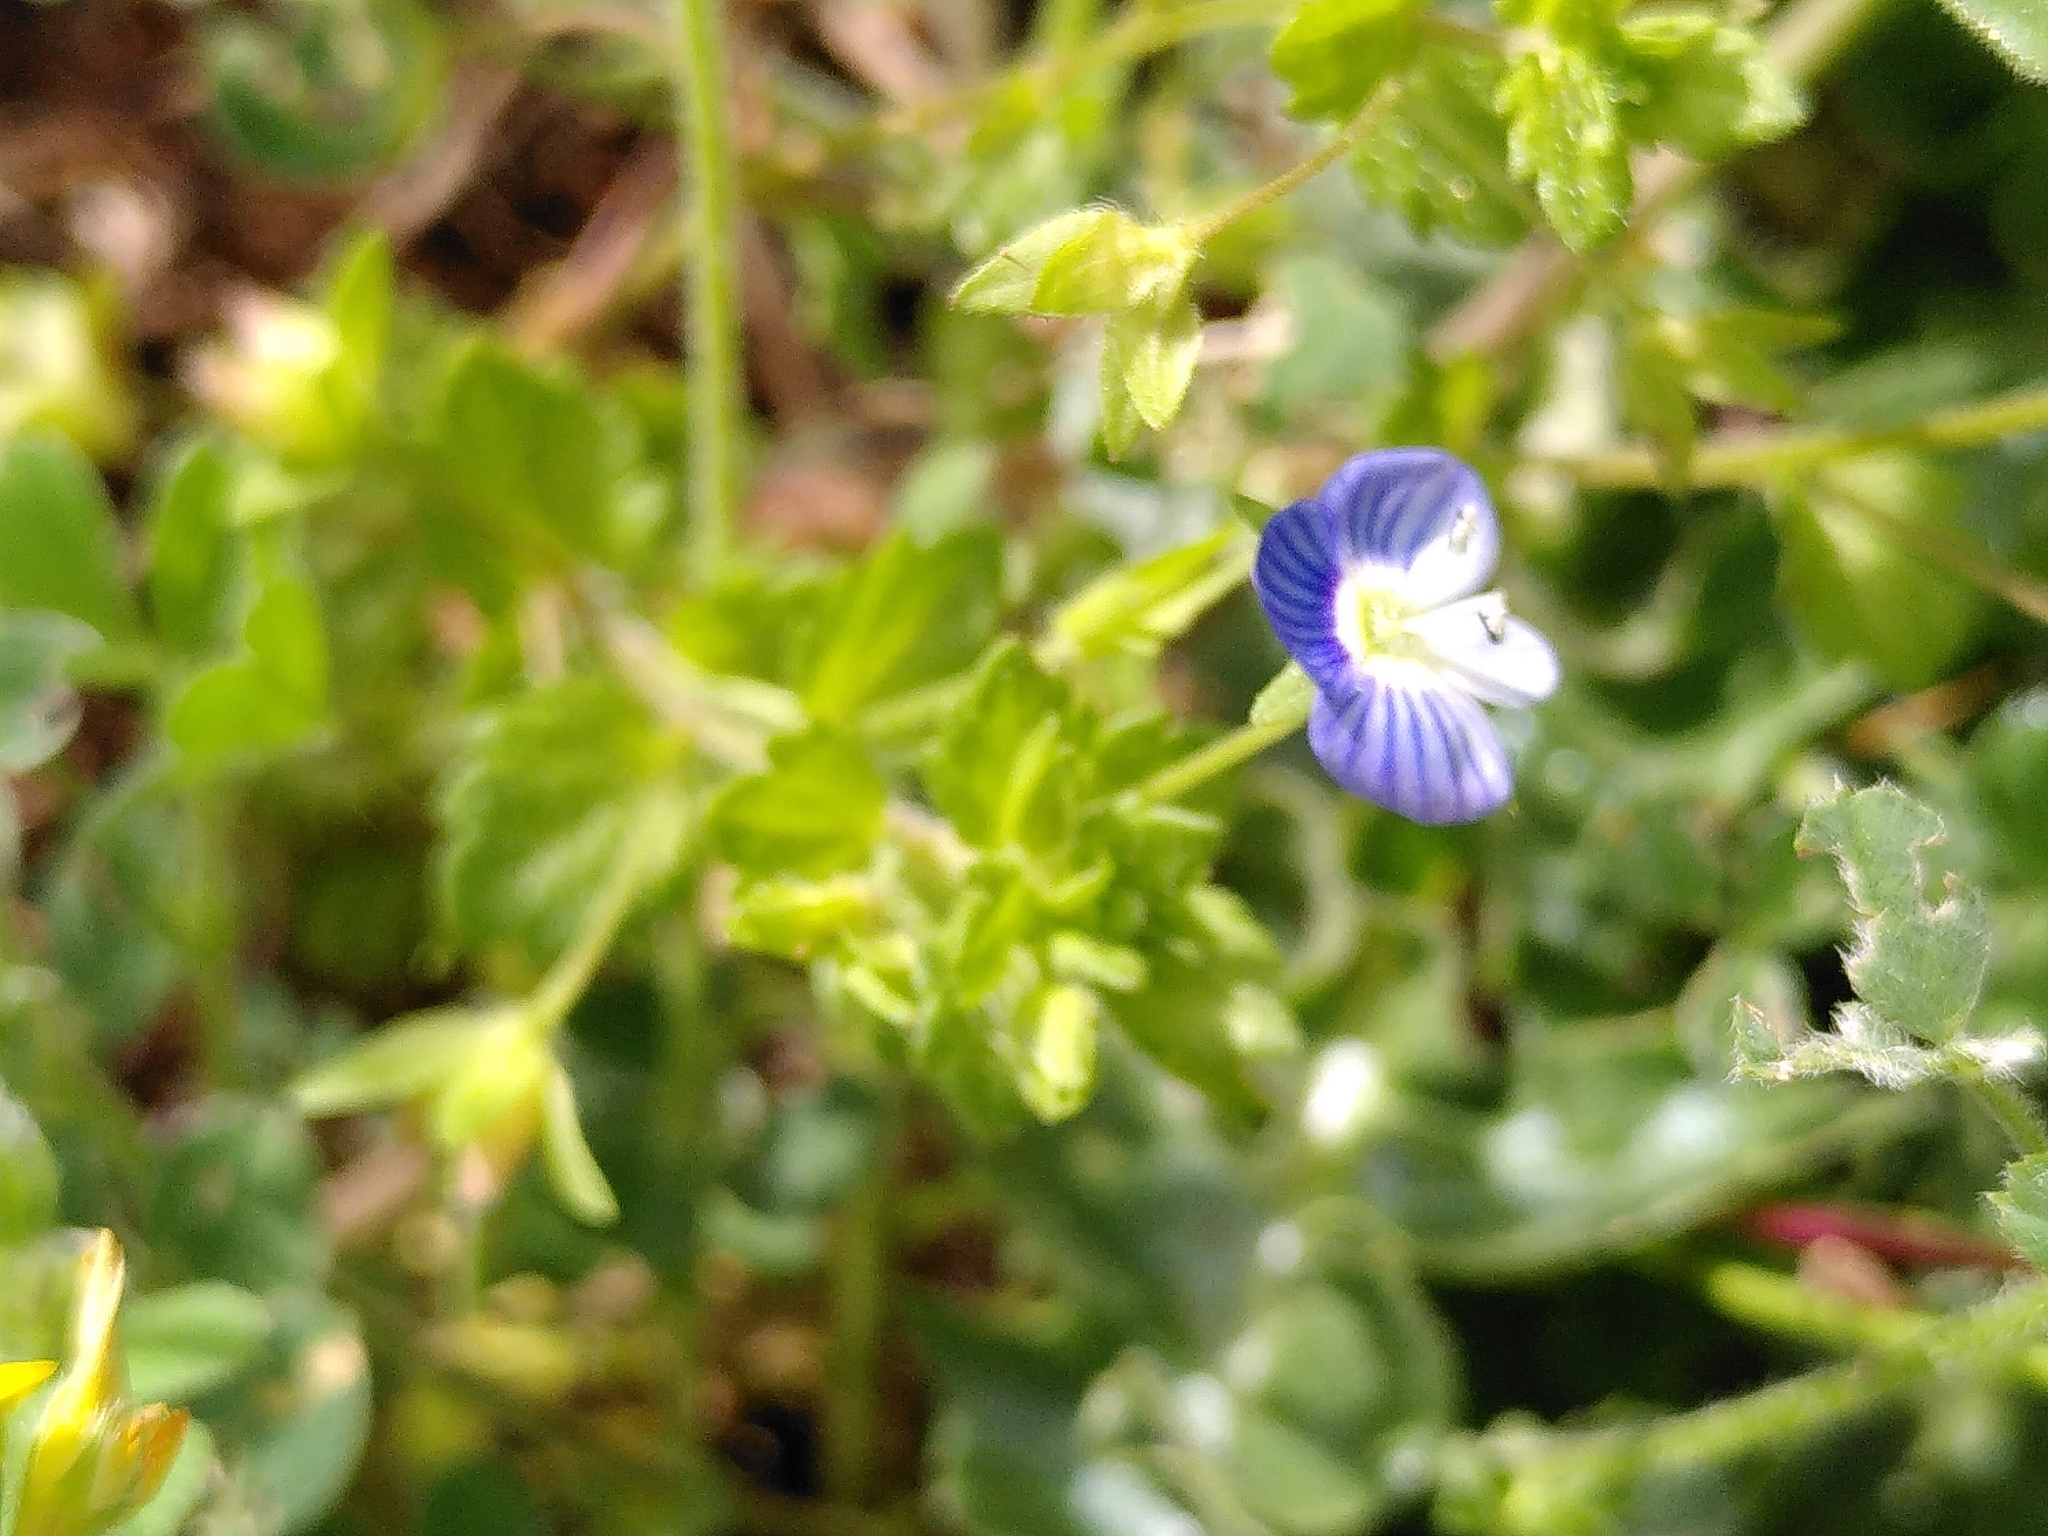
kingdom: Plantae
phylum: Tracheophyta
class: Magnoliopsida
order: Lamiales
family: Plantaginaceae
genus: Veronica
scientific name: Veronica persica
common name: Common field-speedwell
